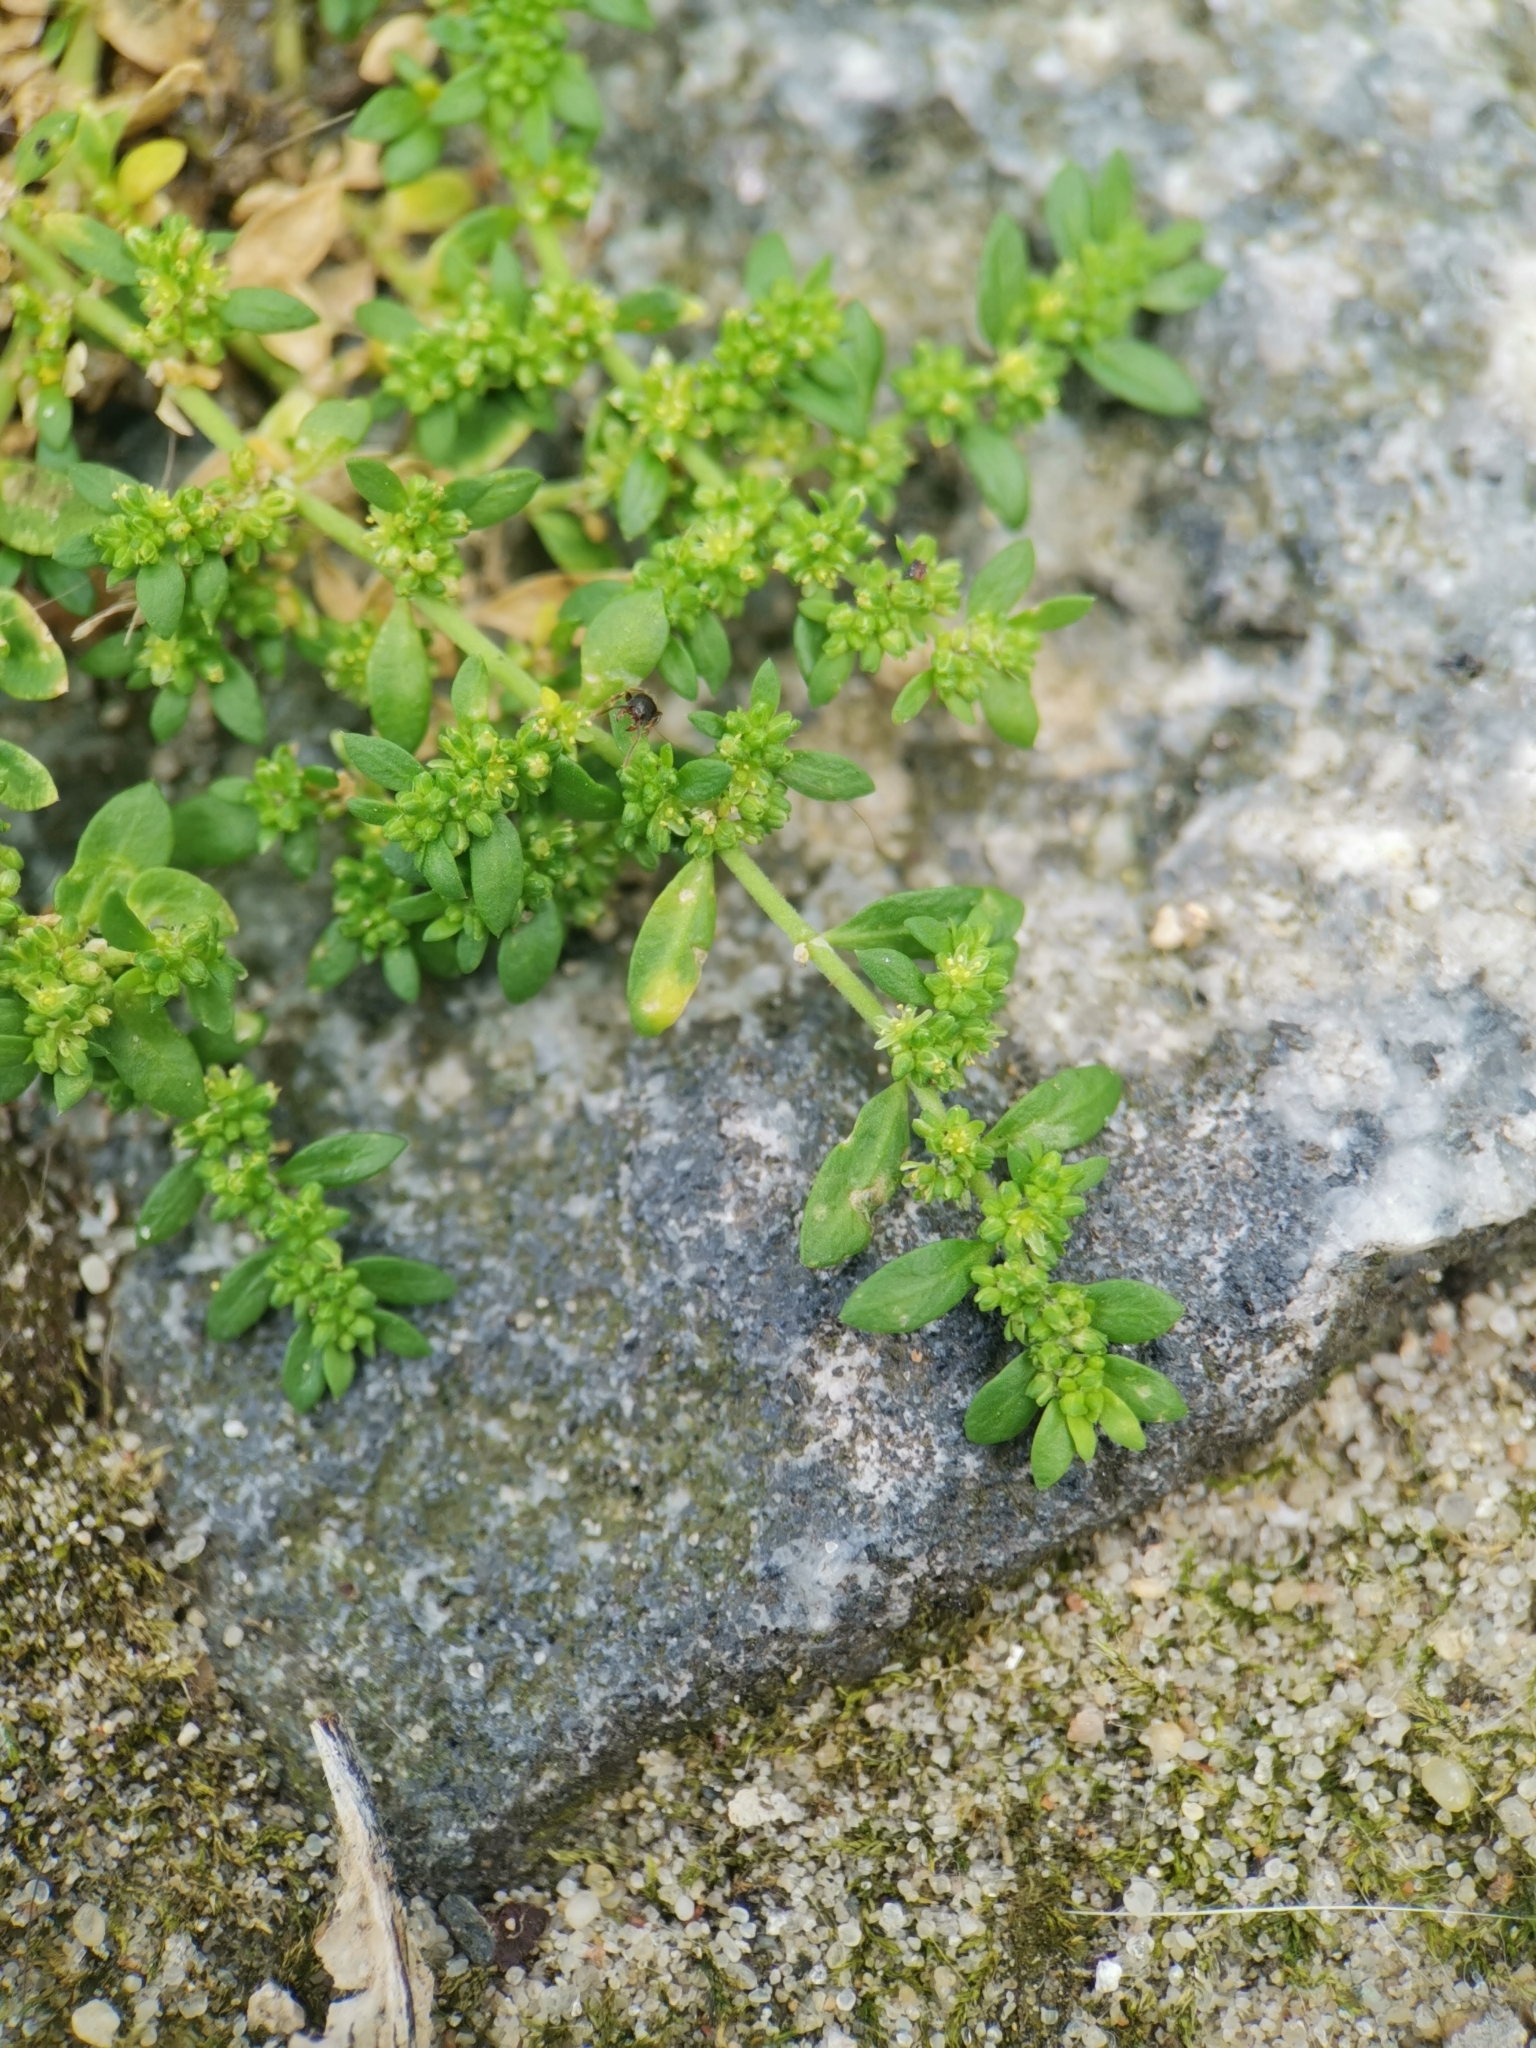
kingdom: Plantae
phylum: Tracheophyta
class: Magnoliopsida
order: Caryophyllales
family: Caryophyllaceae
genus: Herniaria
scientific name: Herniaria glabra
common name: Smooth rupturewort
